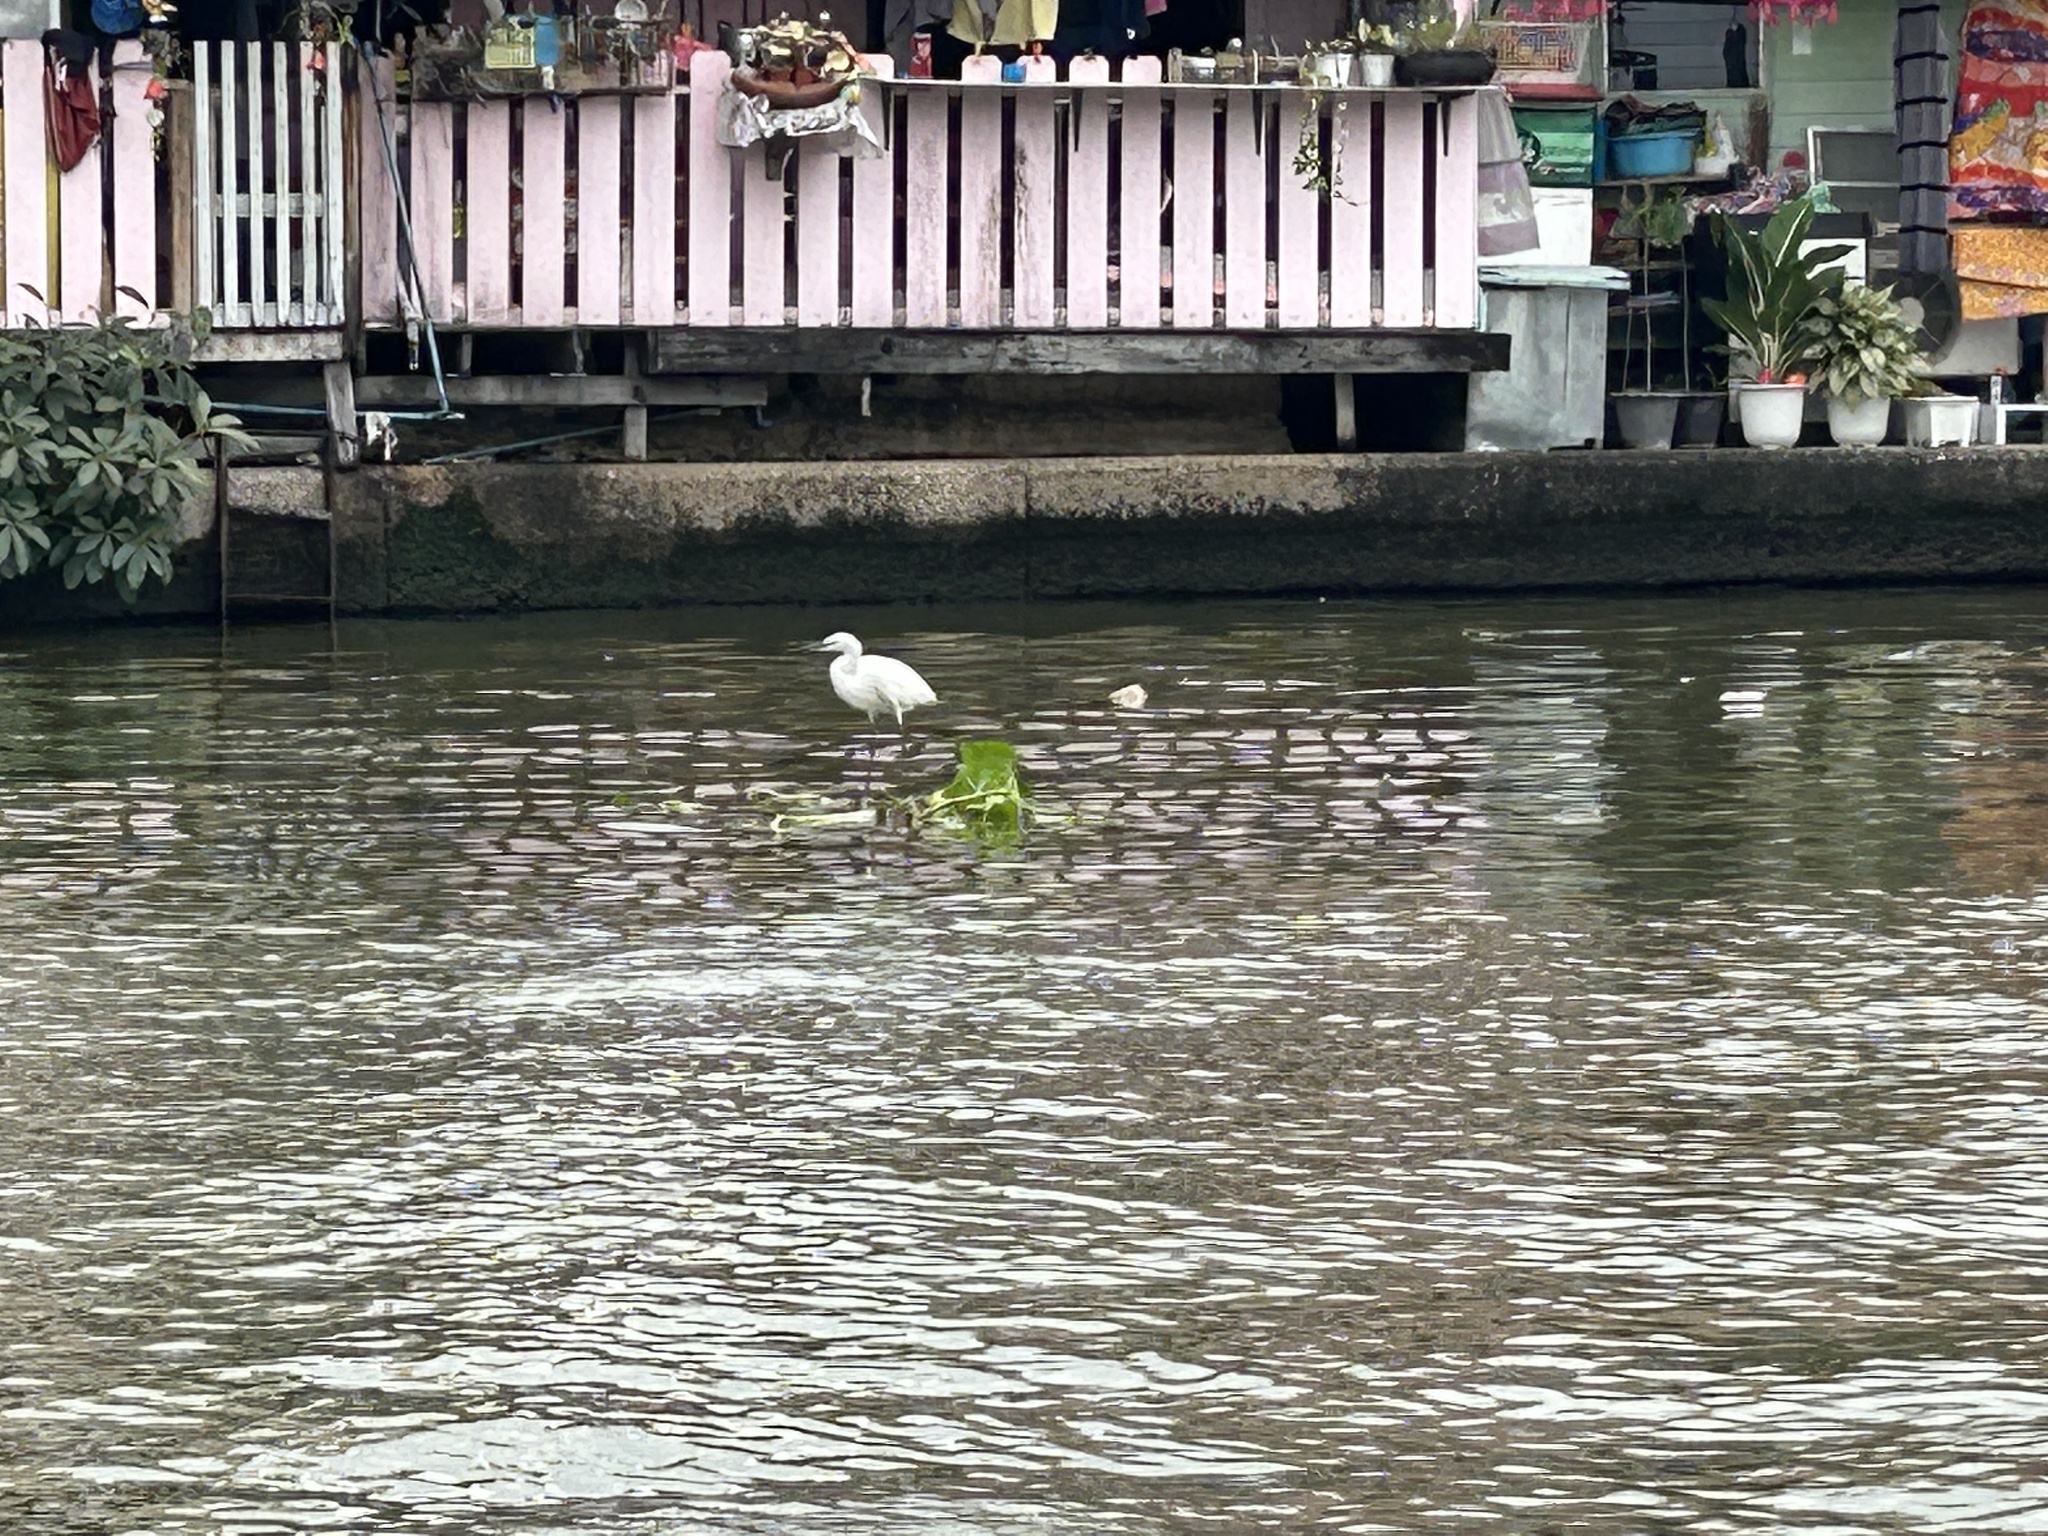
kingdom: Animalia
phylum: Chordata
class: Aves
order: Pelecaniformes
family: Ardeidae
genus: Egretta
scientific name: Egretta garzetta
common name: Little egret
